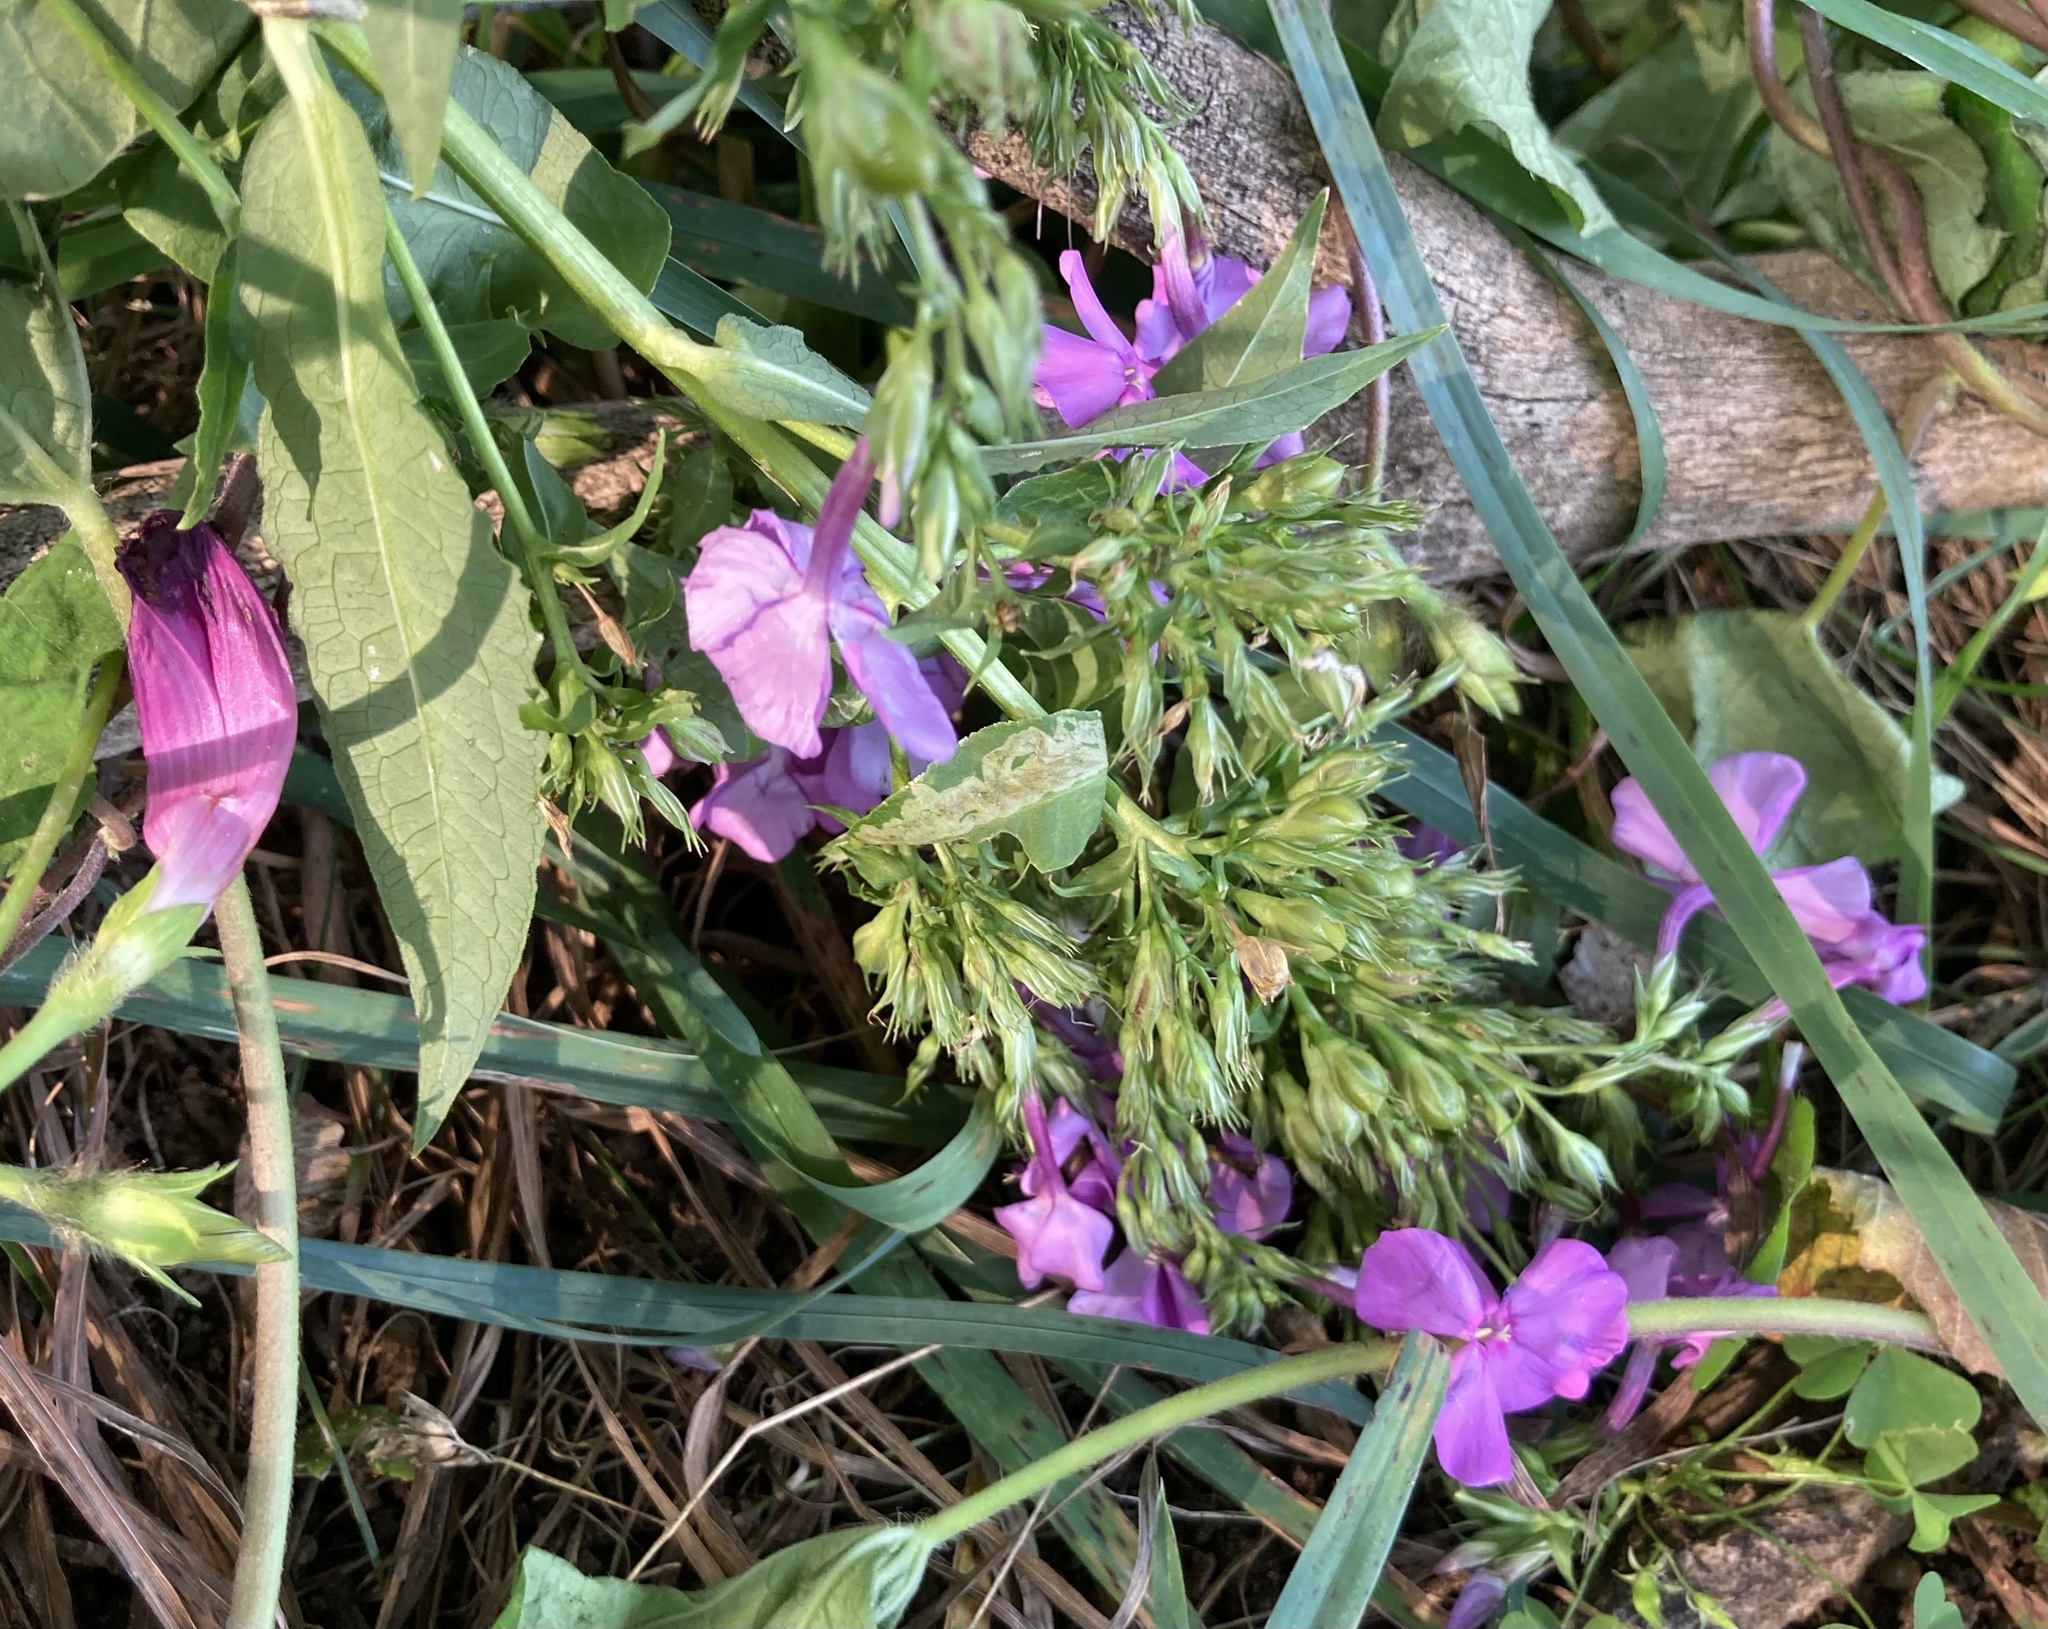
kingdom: Plantae
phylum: Tracheophyta
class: Magnoliopsida
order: Ericales
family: Polemoniaceae
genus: Phlox
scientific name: Phlox paniculata
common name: Fall phlox
